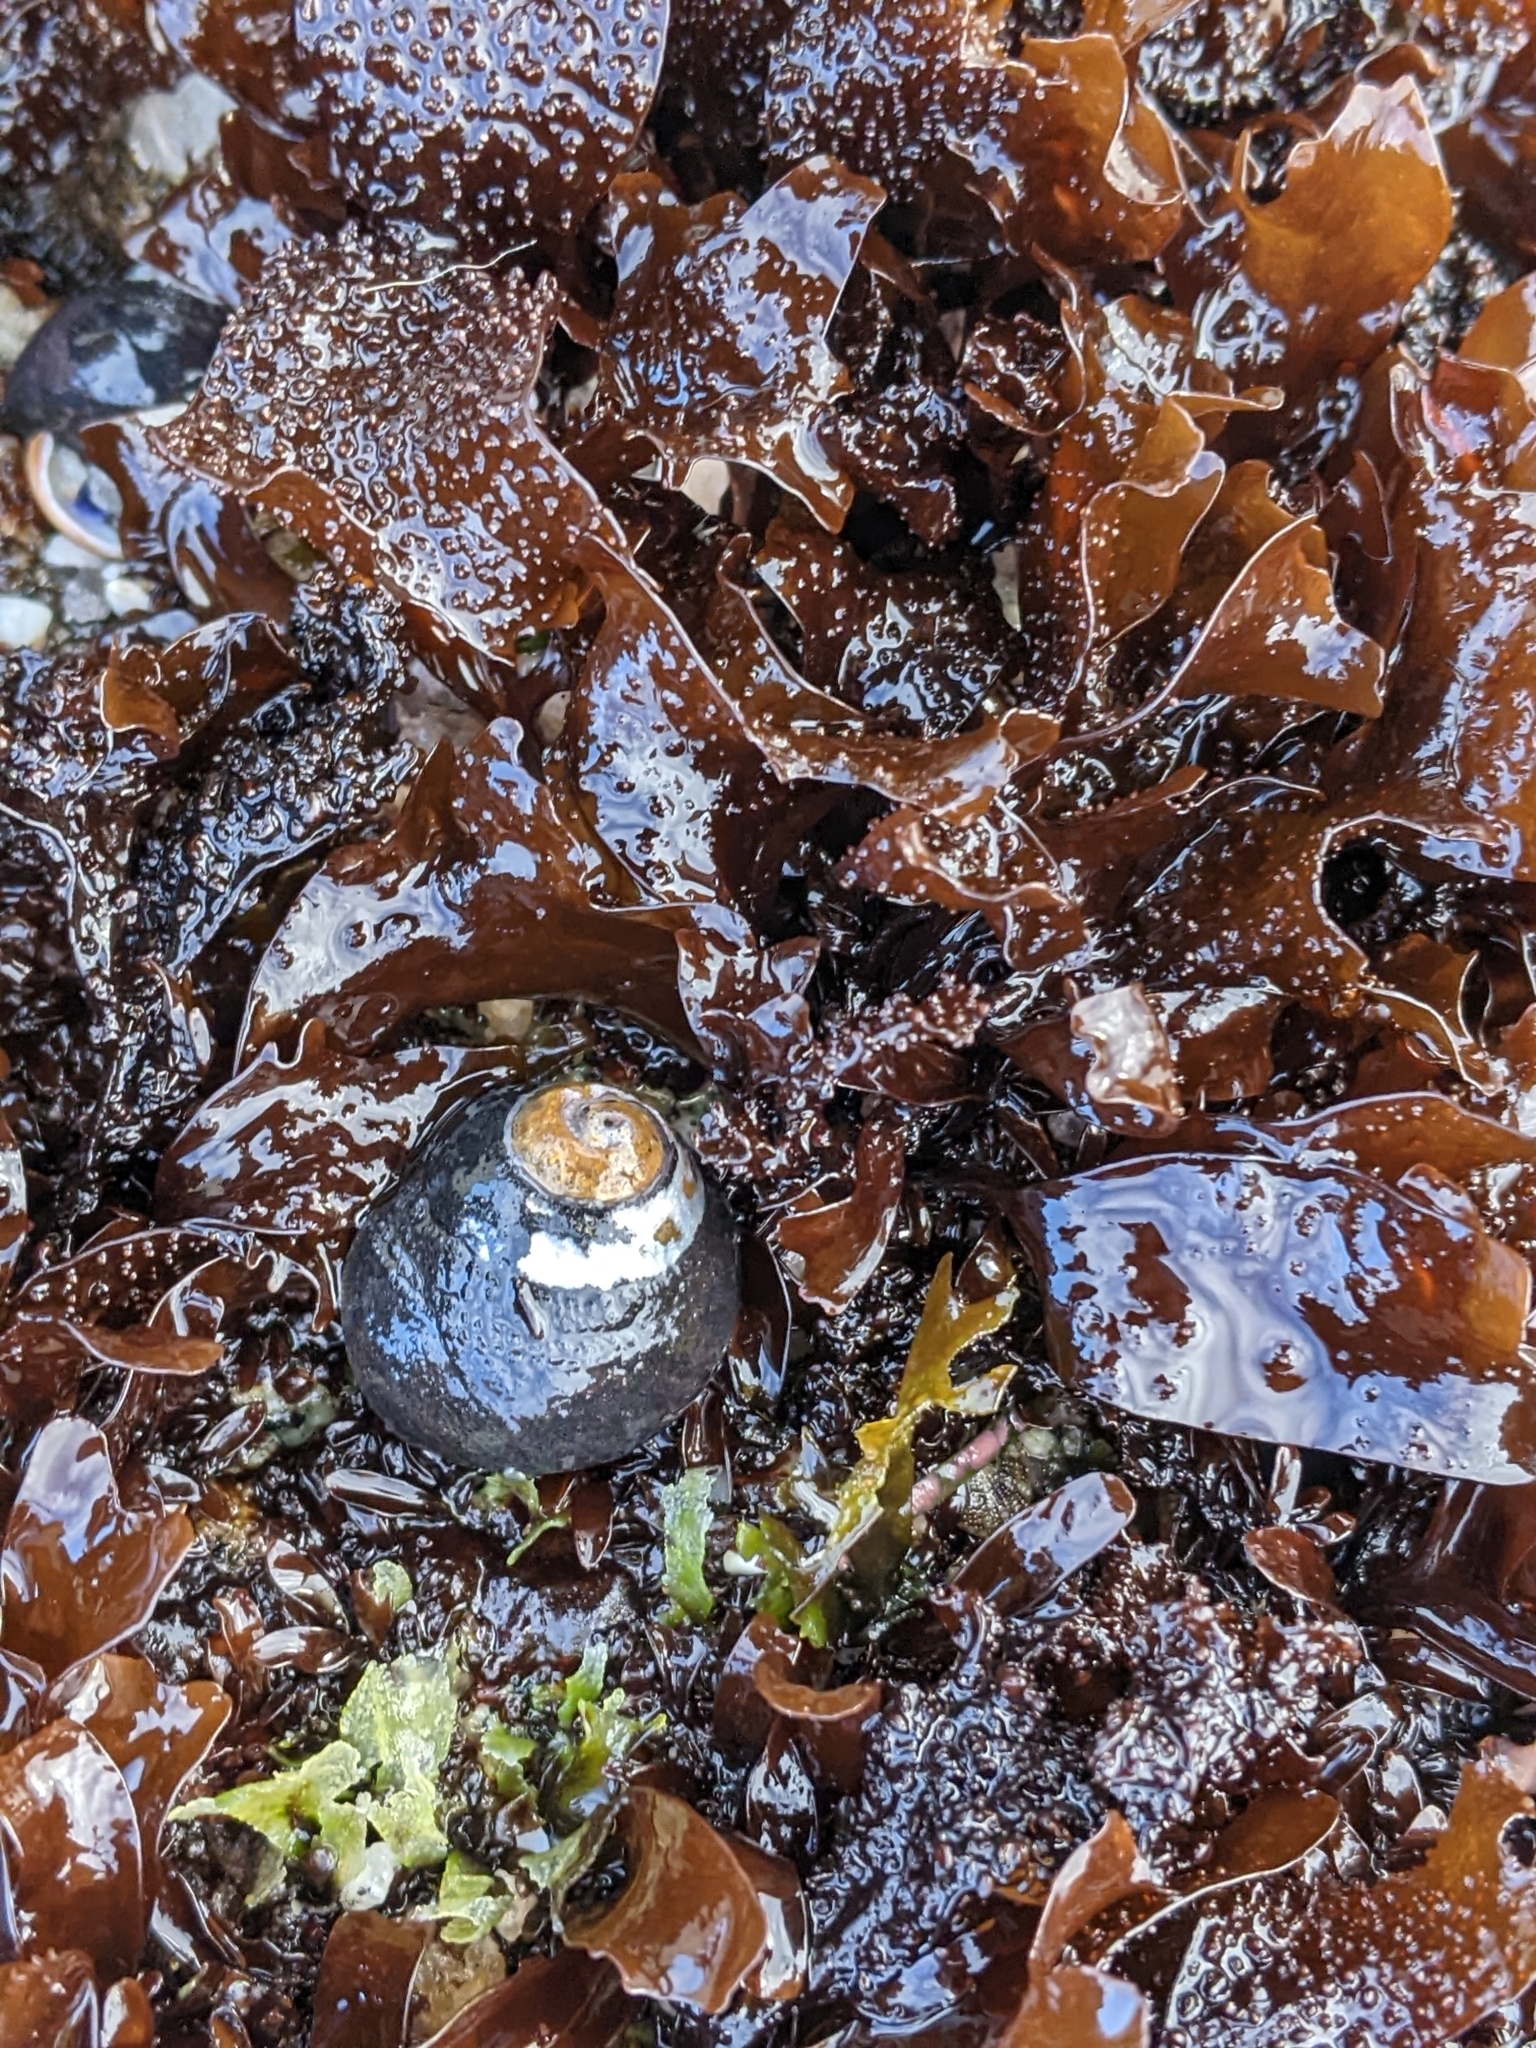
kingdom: Animalia
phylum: Mollusca
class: Gastropoda
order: Trochida
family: Tegulidae
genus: Tegula
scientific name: Tegula funebralis
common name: Black tegula
